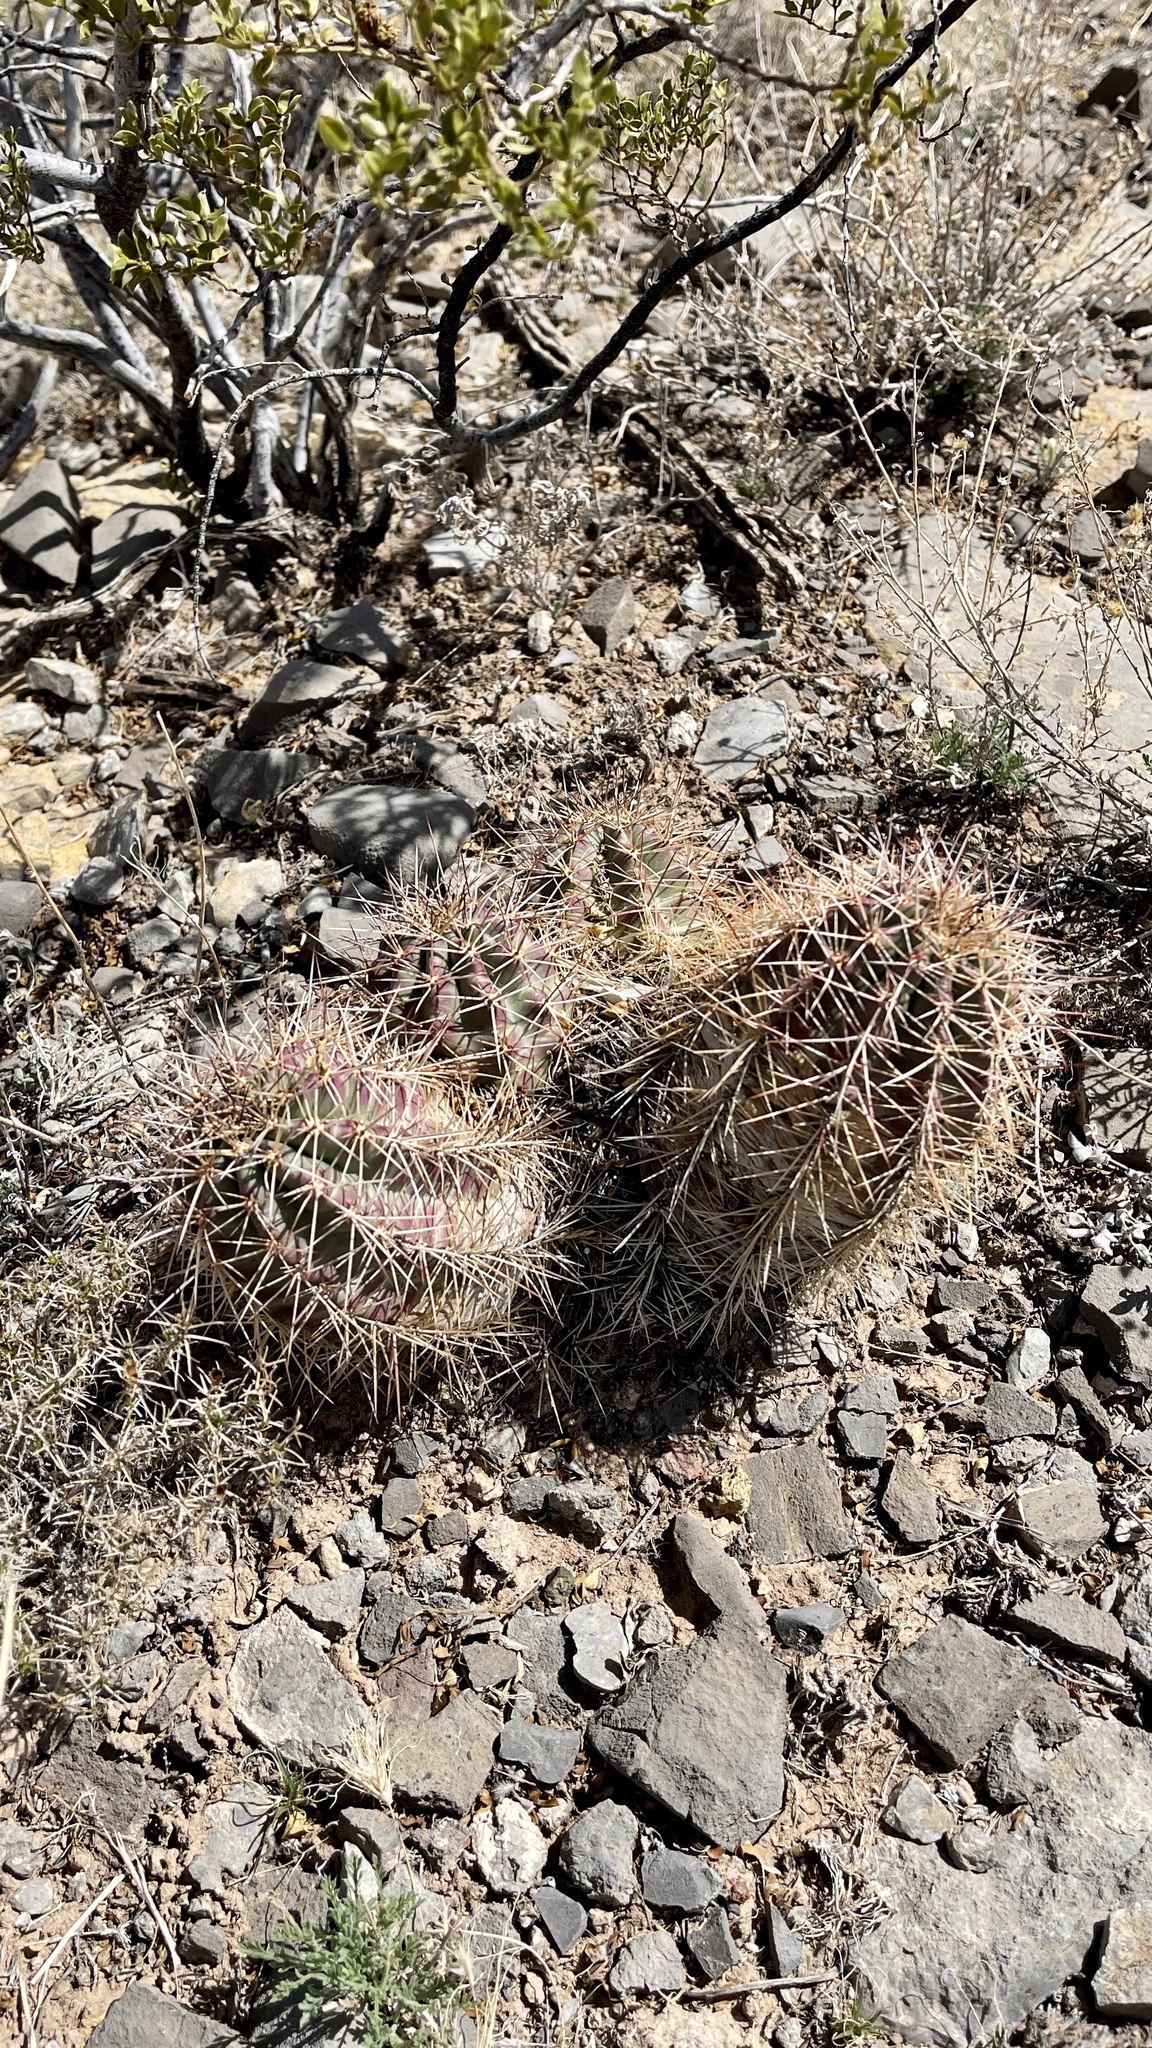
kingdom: Plantae
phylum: Tracheophyta
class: Magnoliopsida
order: Caryophyllales
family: Cactaceae
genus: Echinocereus
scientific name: Echinocereus coccineus
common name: Scarlet hedgehog cactus
